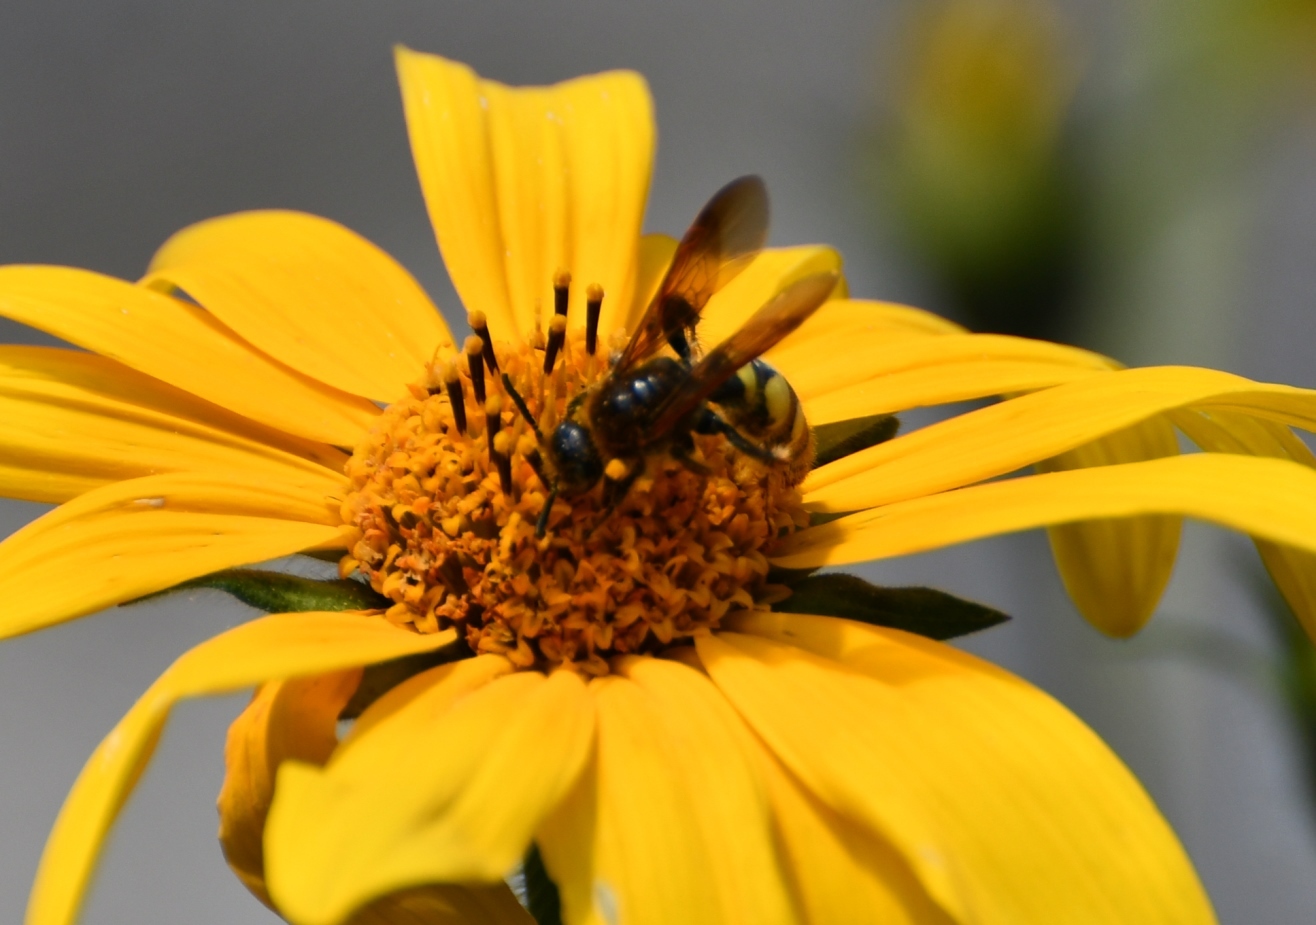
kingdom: Animalia
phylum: Arthropoda
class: Insecta
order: Hymenoptera
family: Scoliidae
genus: Xanthocampsomeris
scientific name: Xanthocampsomeris completa
